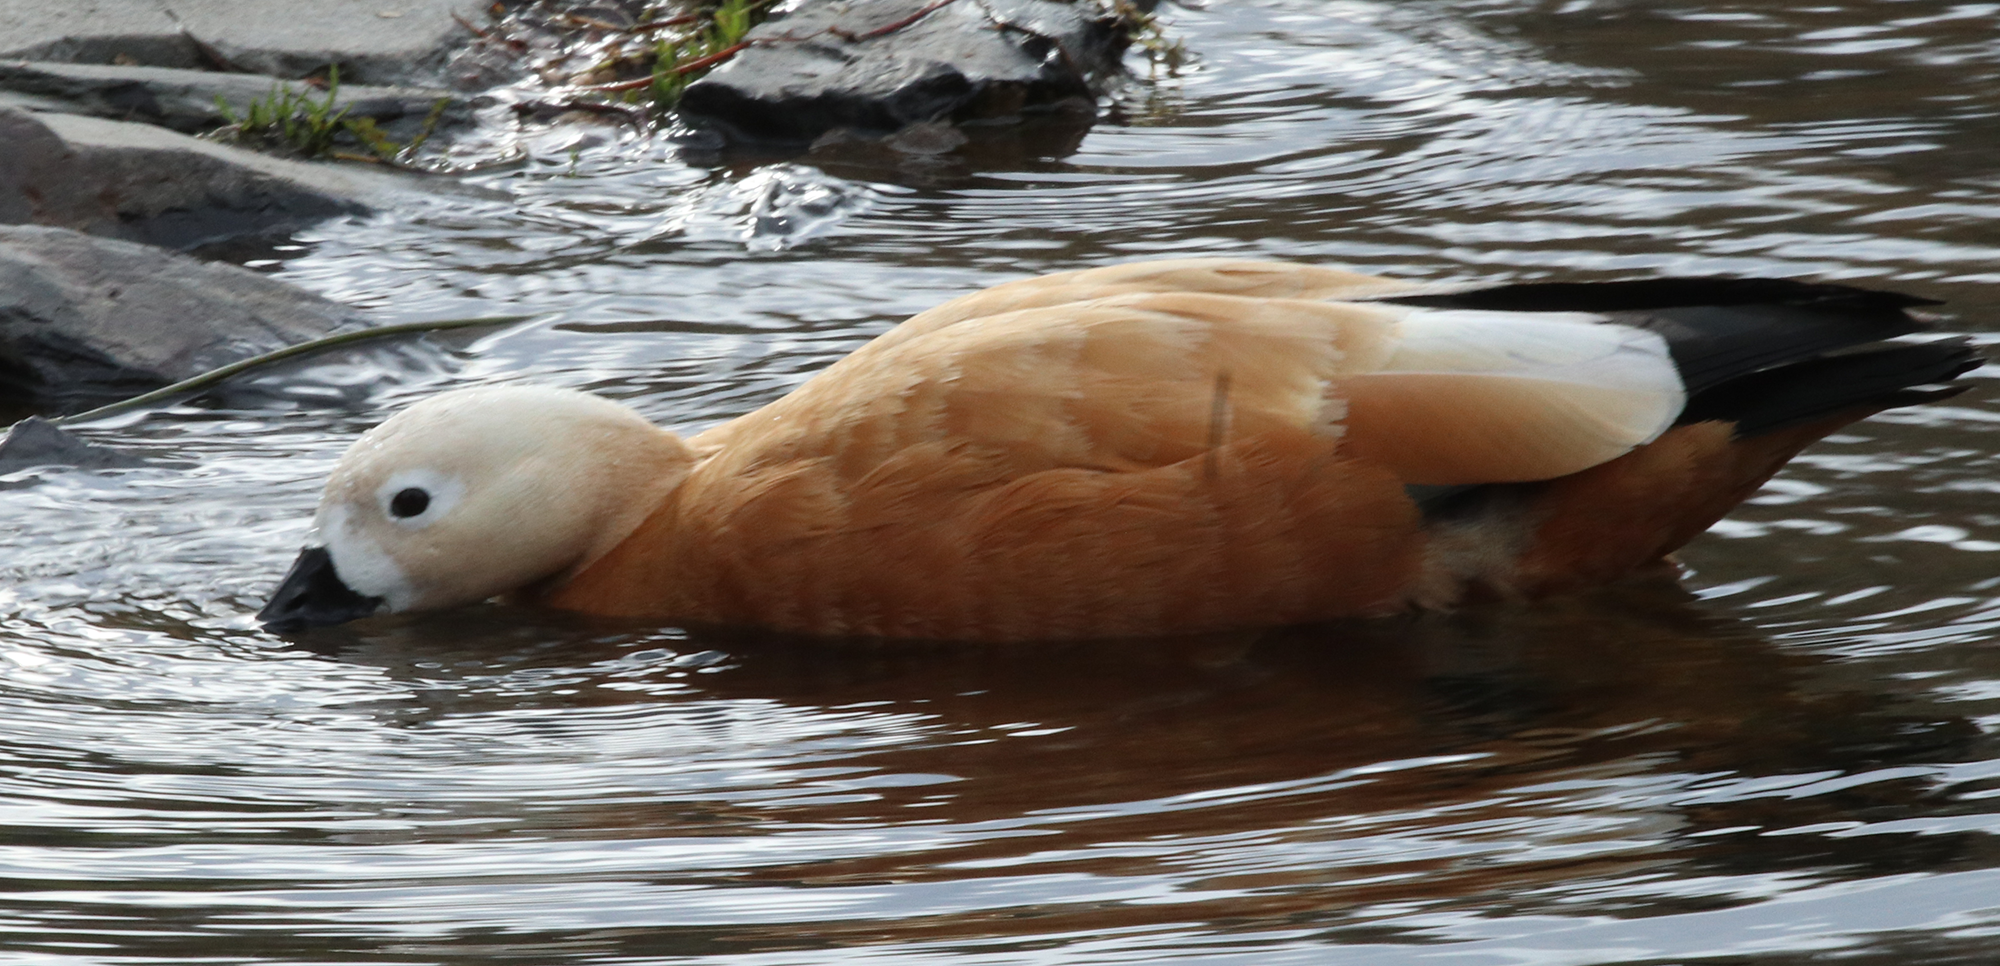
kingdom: Animalia
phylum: Chordata
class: Aves
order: Anseriformes
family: Anatidae
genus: Tadorna
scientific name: Tadorna ferruginea
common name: Ruddy shelduck
